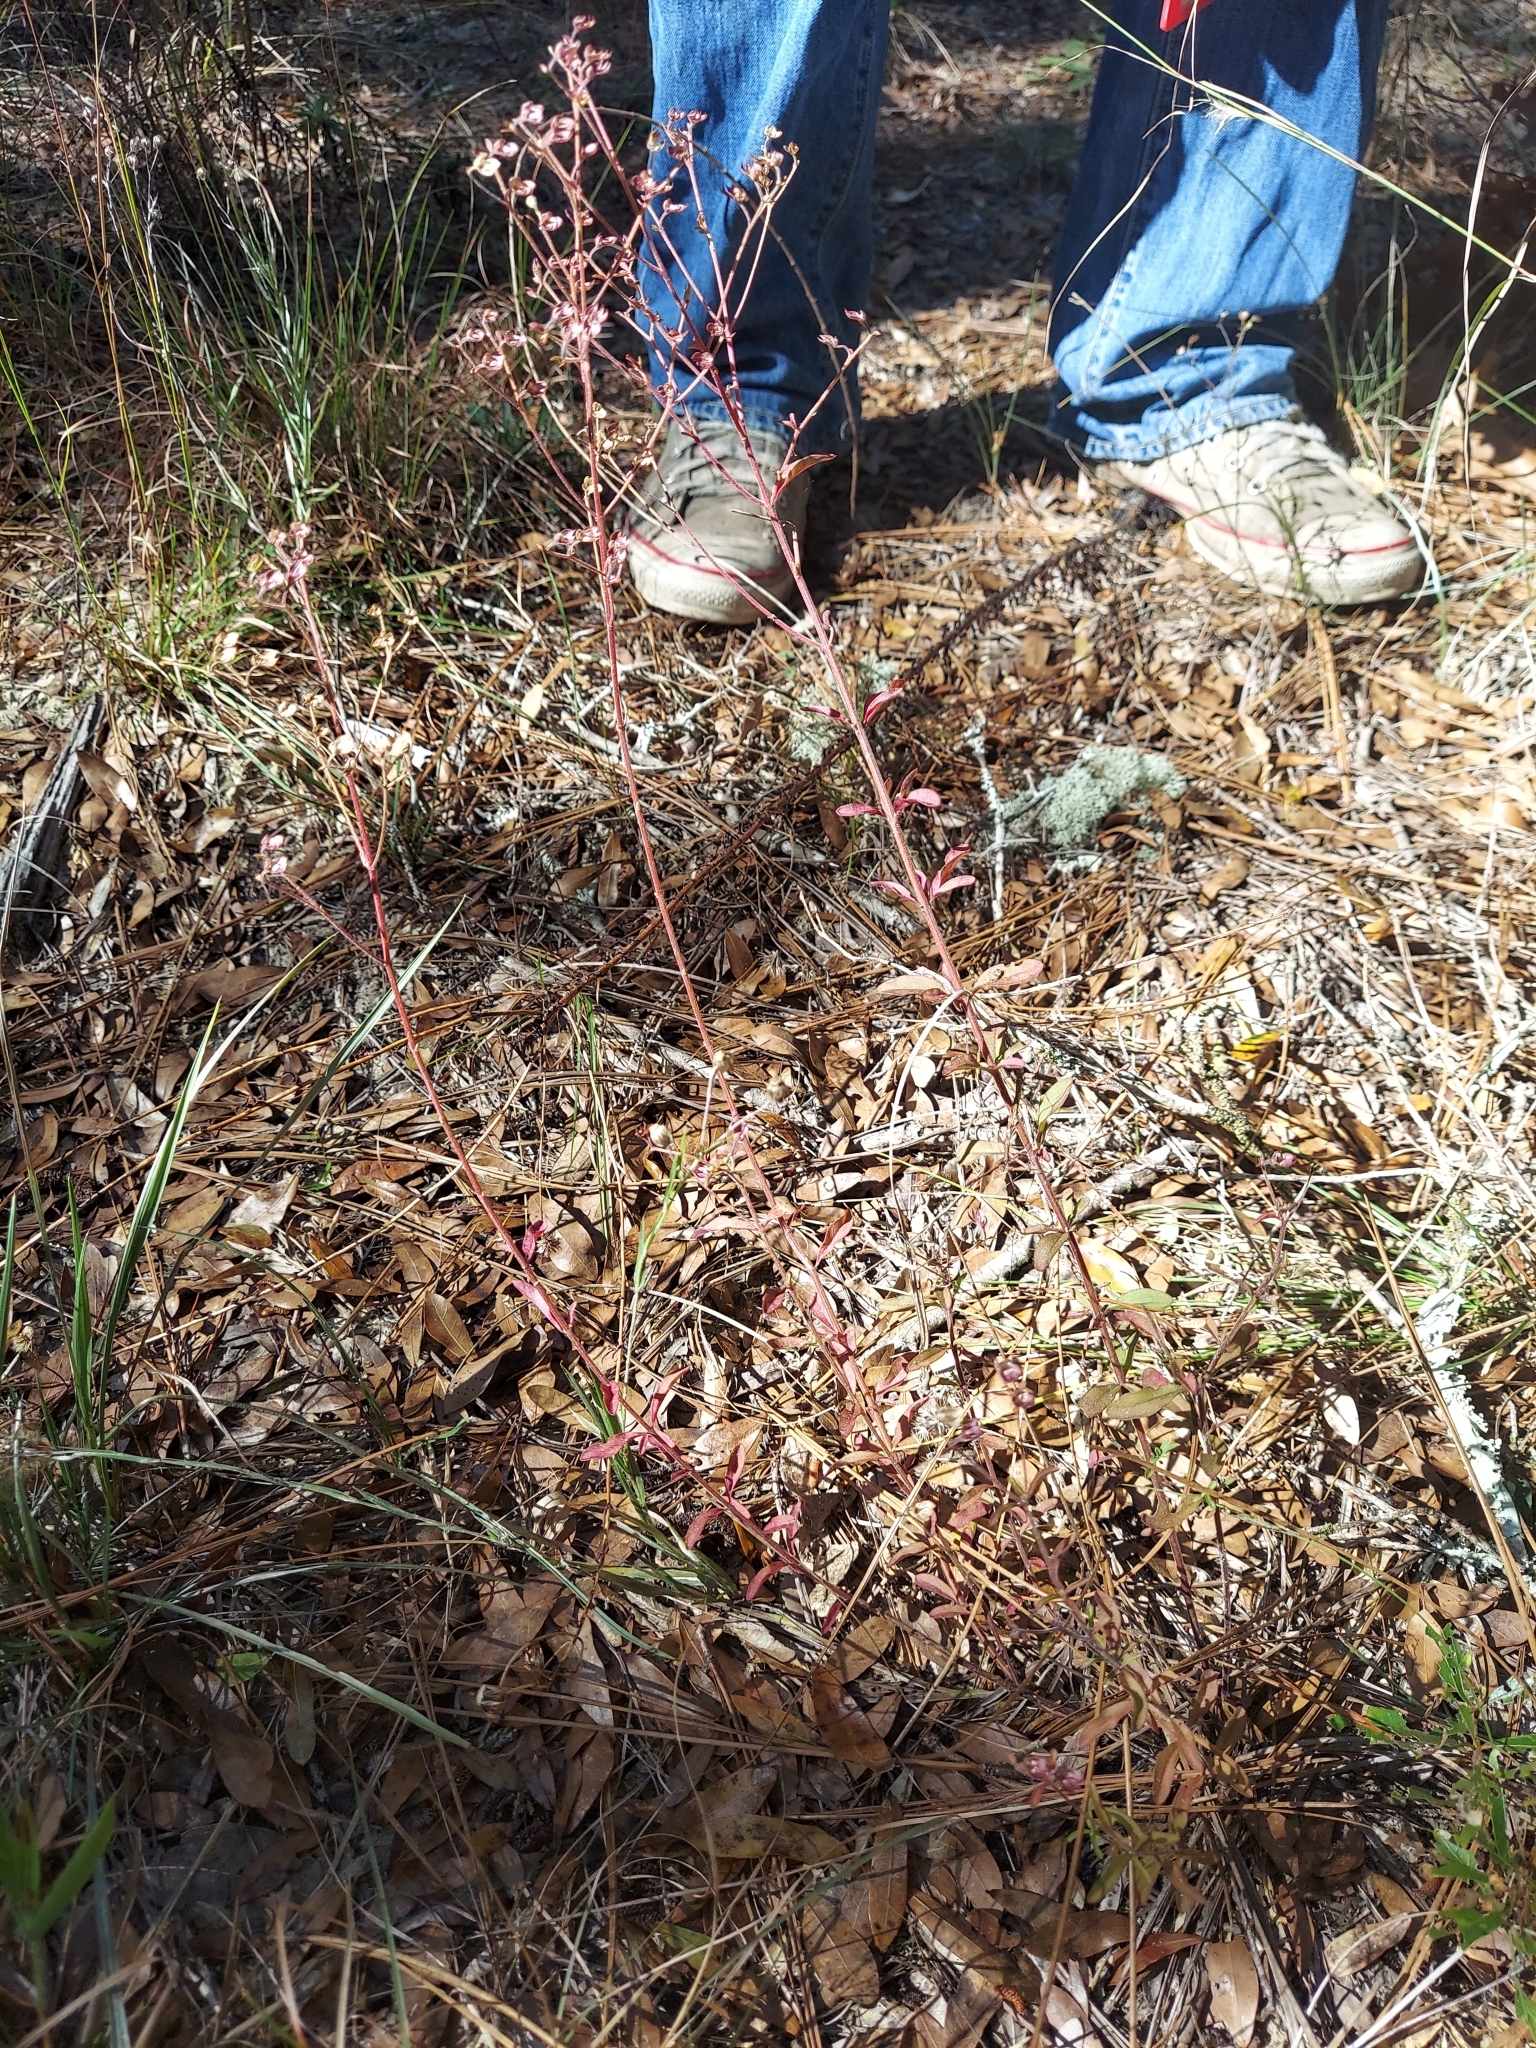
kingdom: Plantae
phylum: Tracheophyta
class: Magnoliopsida
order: Lamiales
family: Lamiaceae
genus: Trichostema
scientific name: Trichostema microphyllum
